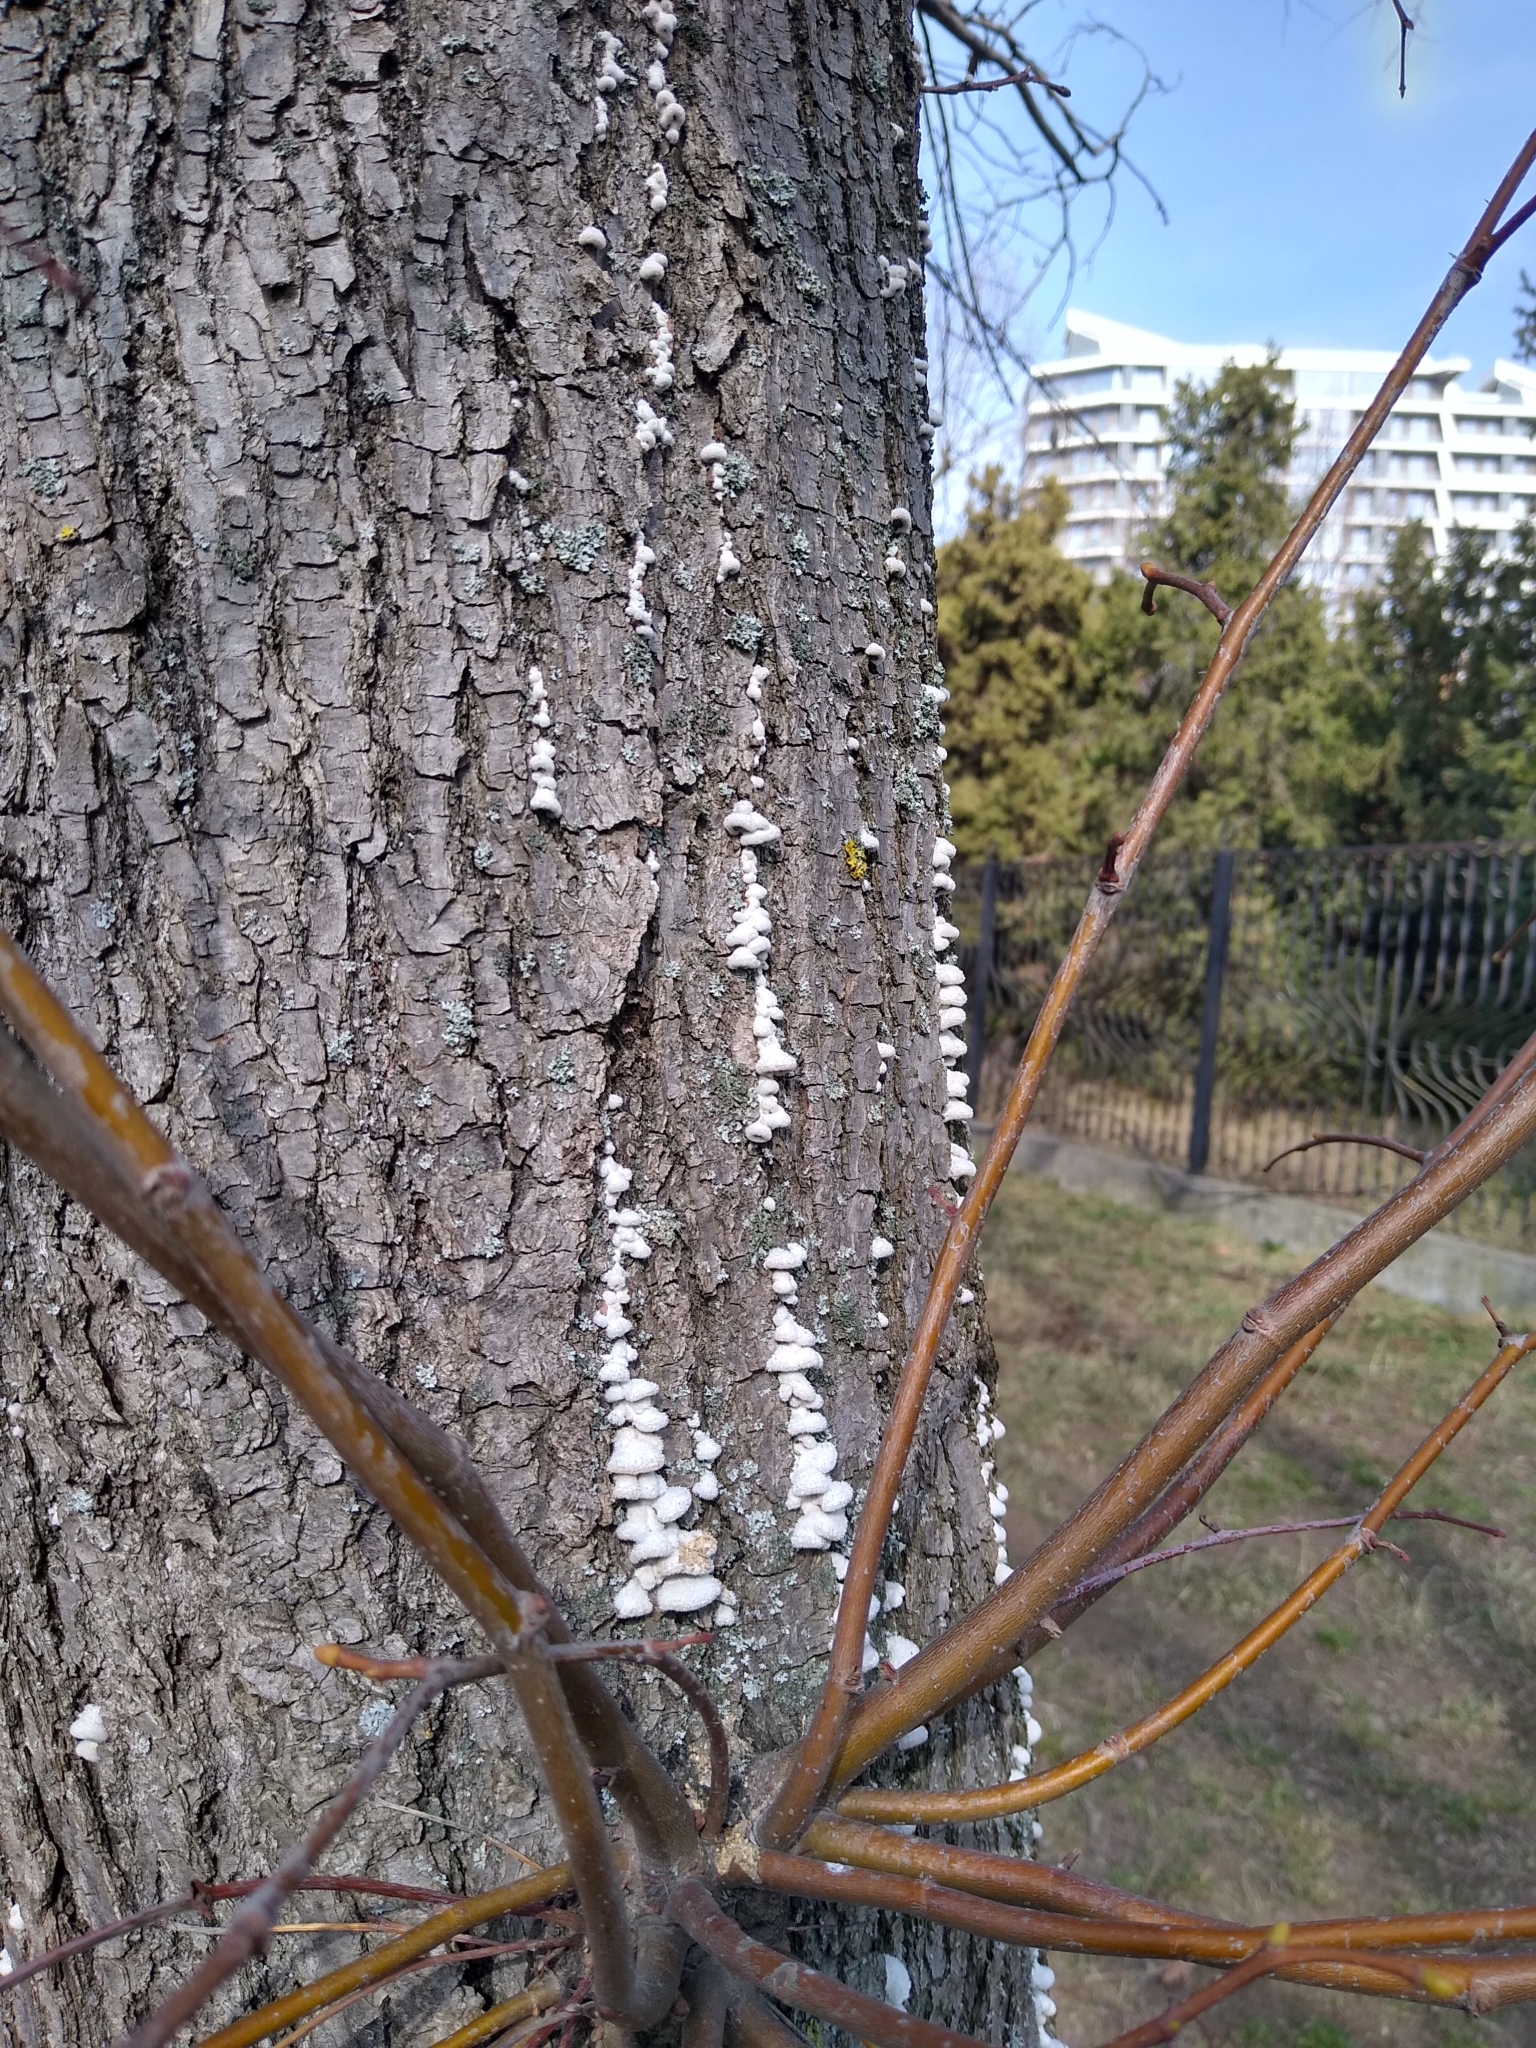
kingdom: Fungi
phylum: Basidiomycota
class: Agaricomycetes
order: Agaricales
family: Schizophyllaceae
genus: Schizophyllum
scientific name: Schizophyllum commune
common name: Common porecrust
